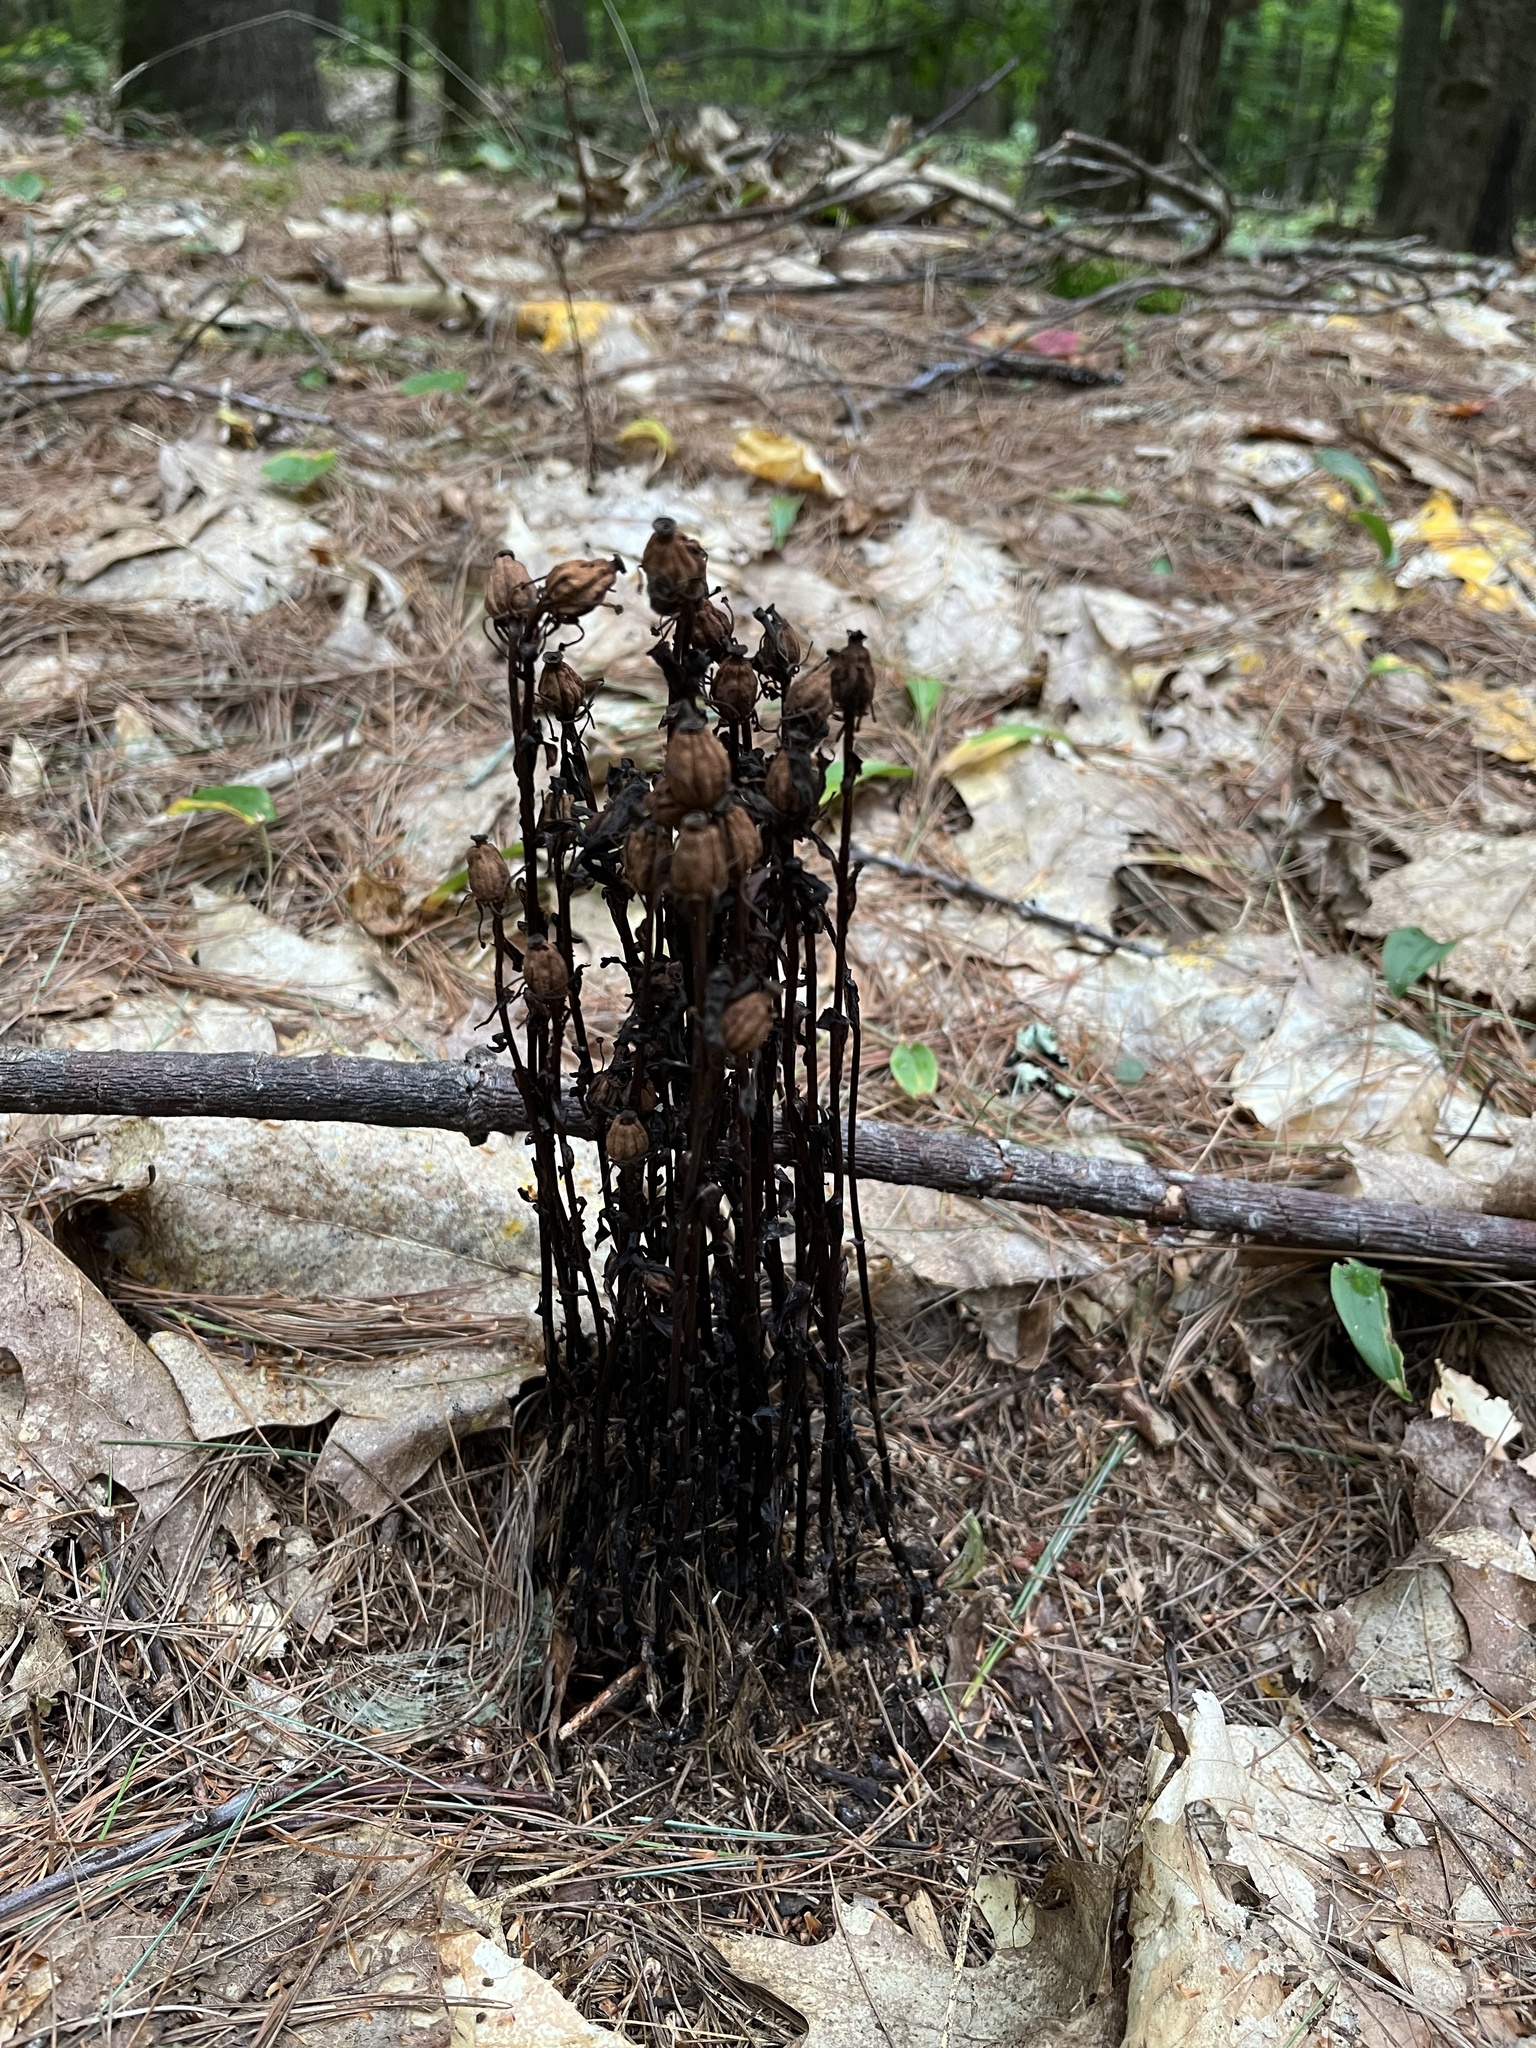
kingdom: Plantae
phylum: Tracheophyta
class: Magnoliopsida
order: Ericales
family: Ericaceae
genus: Monotropa
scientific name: Monotropa uniflora
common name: Convulsion root
